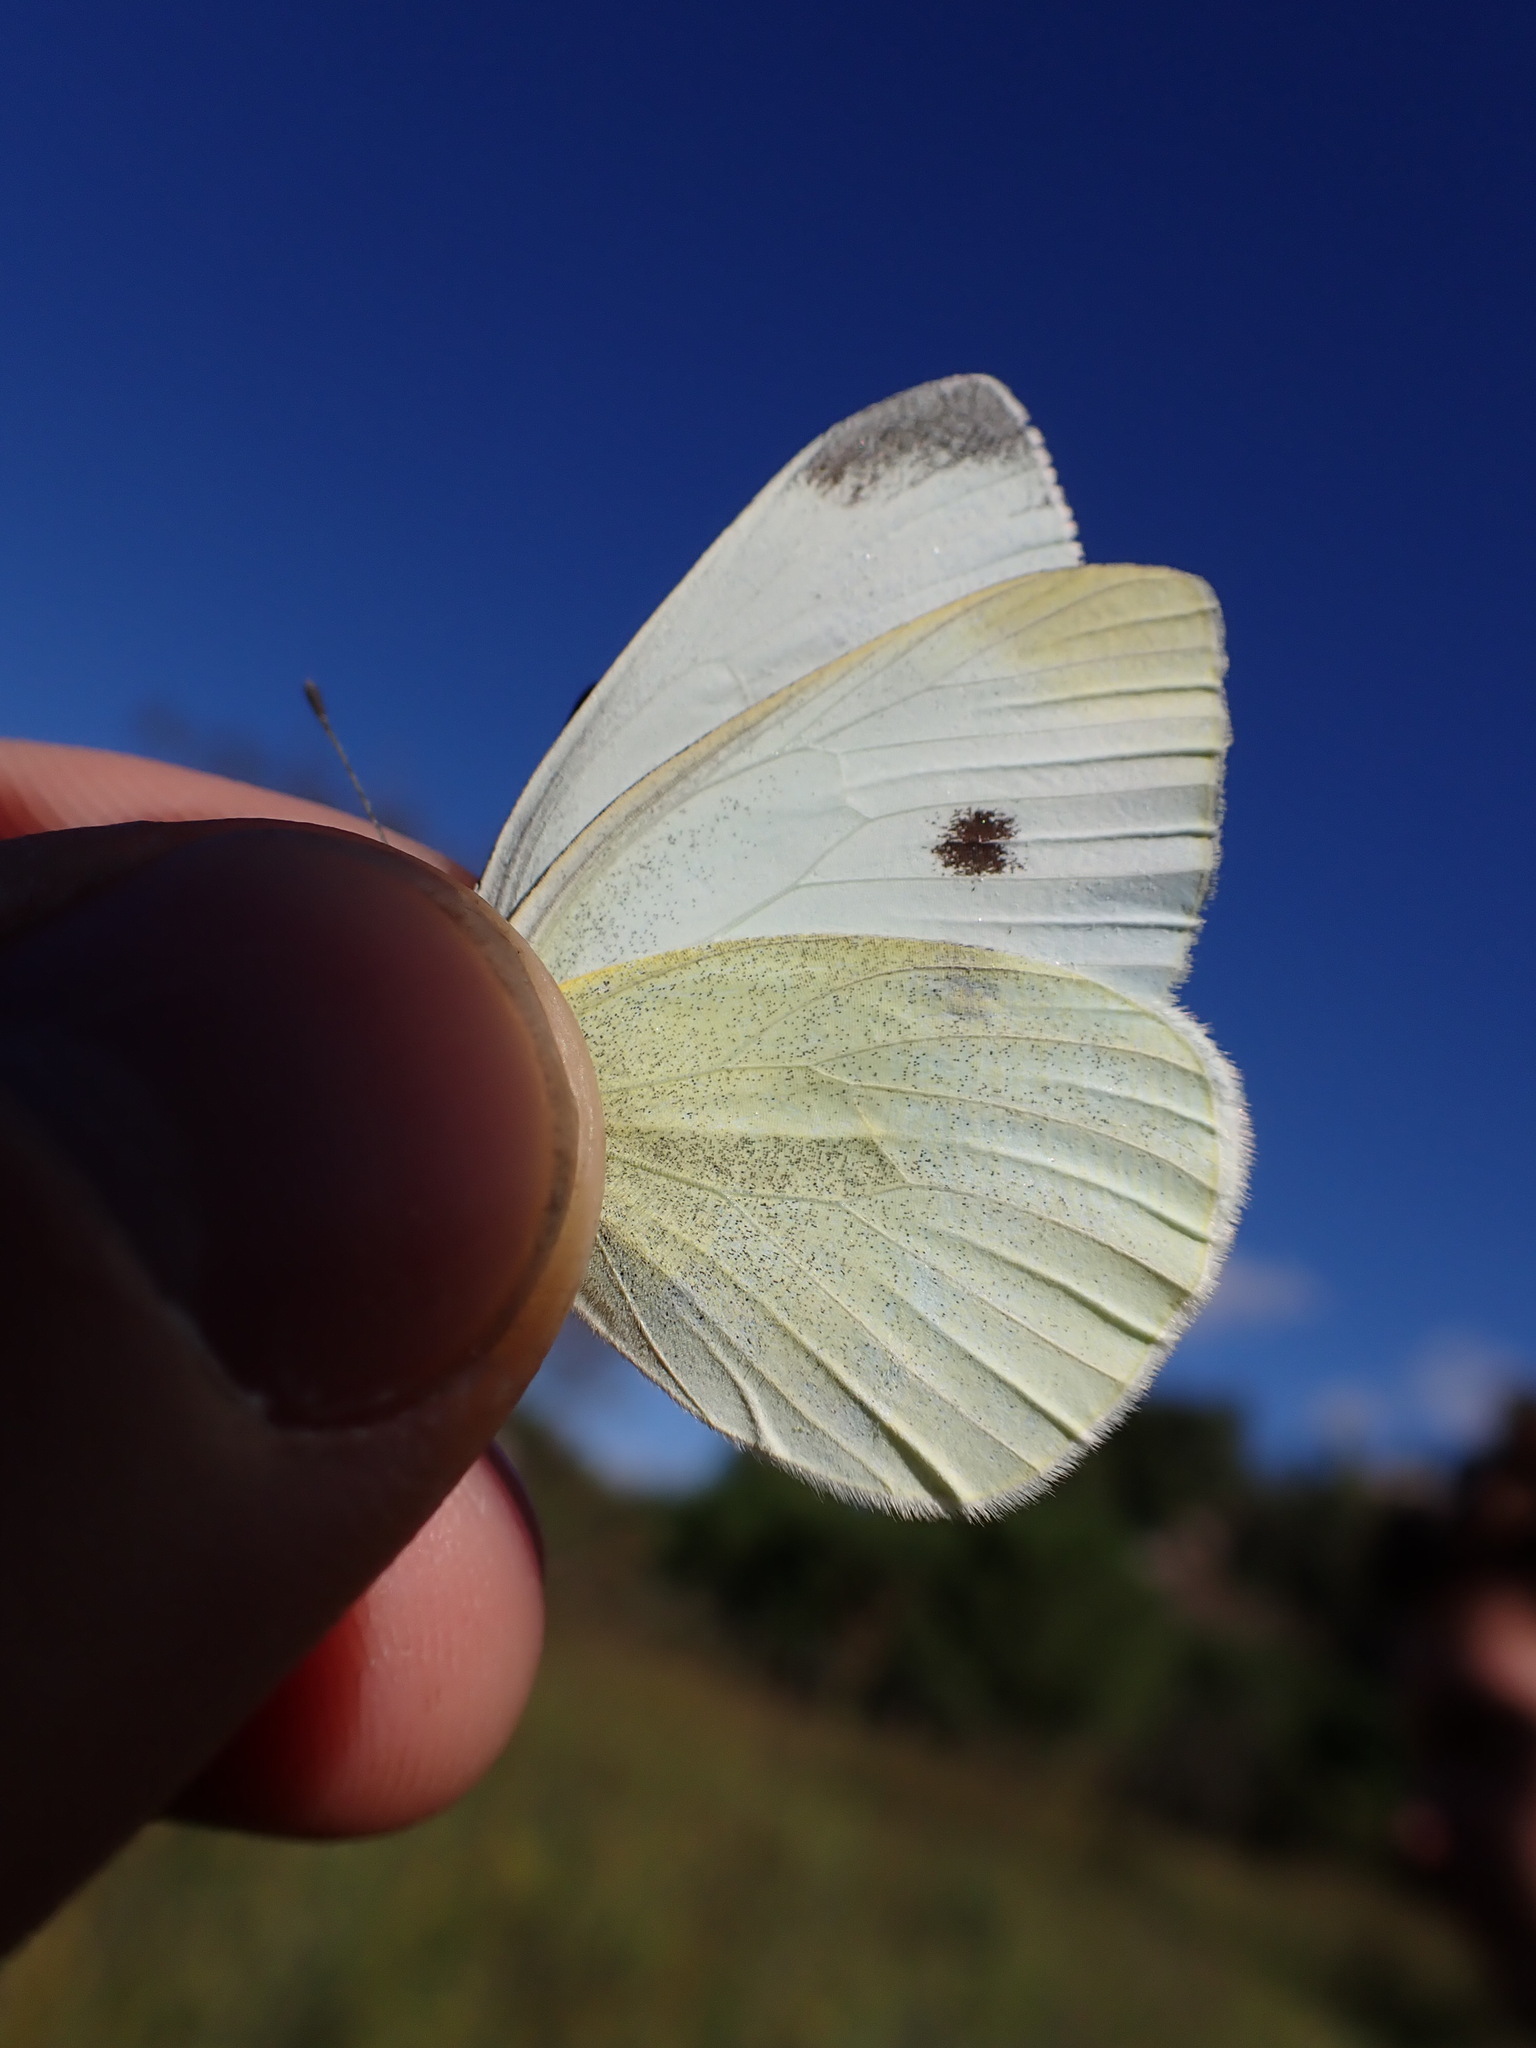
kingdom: Animalia
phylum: Arthropoda
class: Insecta
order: Lepidoptera
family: Pieridae
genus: Pieris
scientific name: Pieris rapae
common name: Small white
